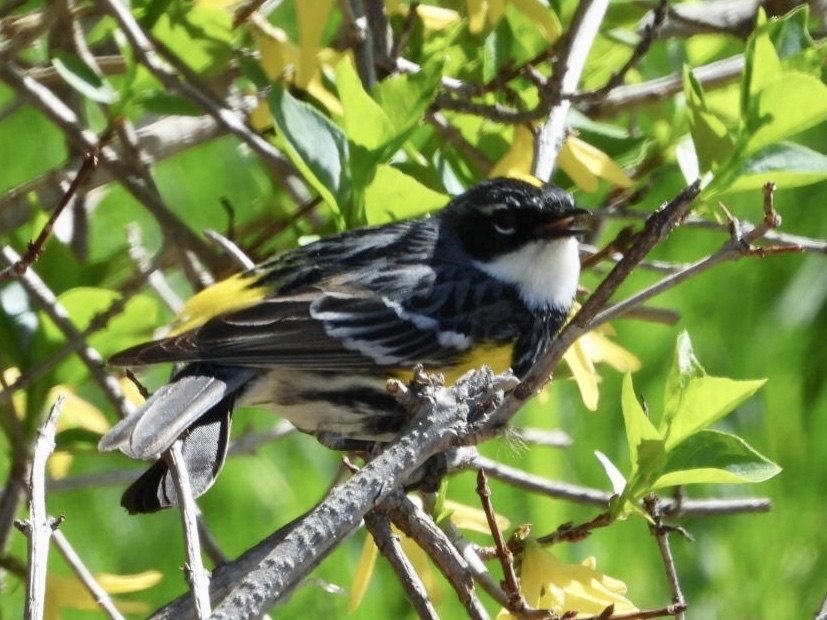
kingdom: Animalia
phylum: Chordata
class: Aves
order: Passeriformes
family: Parulidae
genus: Setophaga
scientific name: Setophaga coronata
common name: Myrtle warbler
